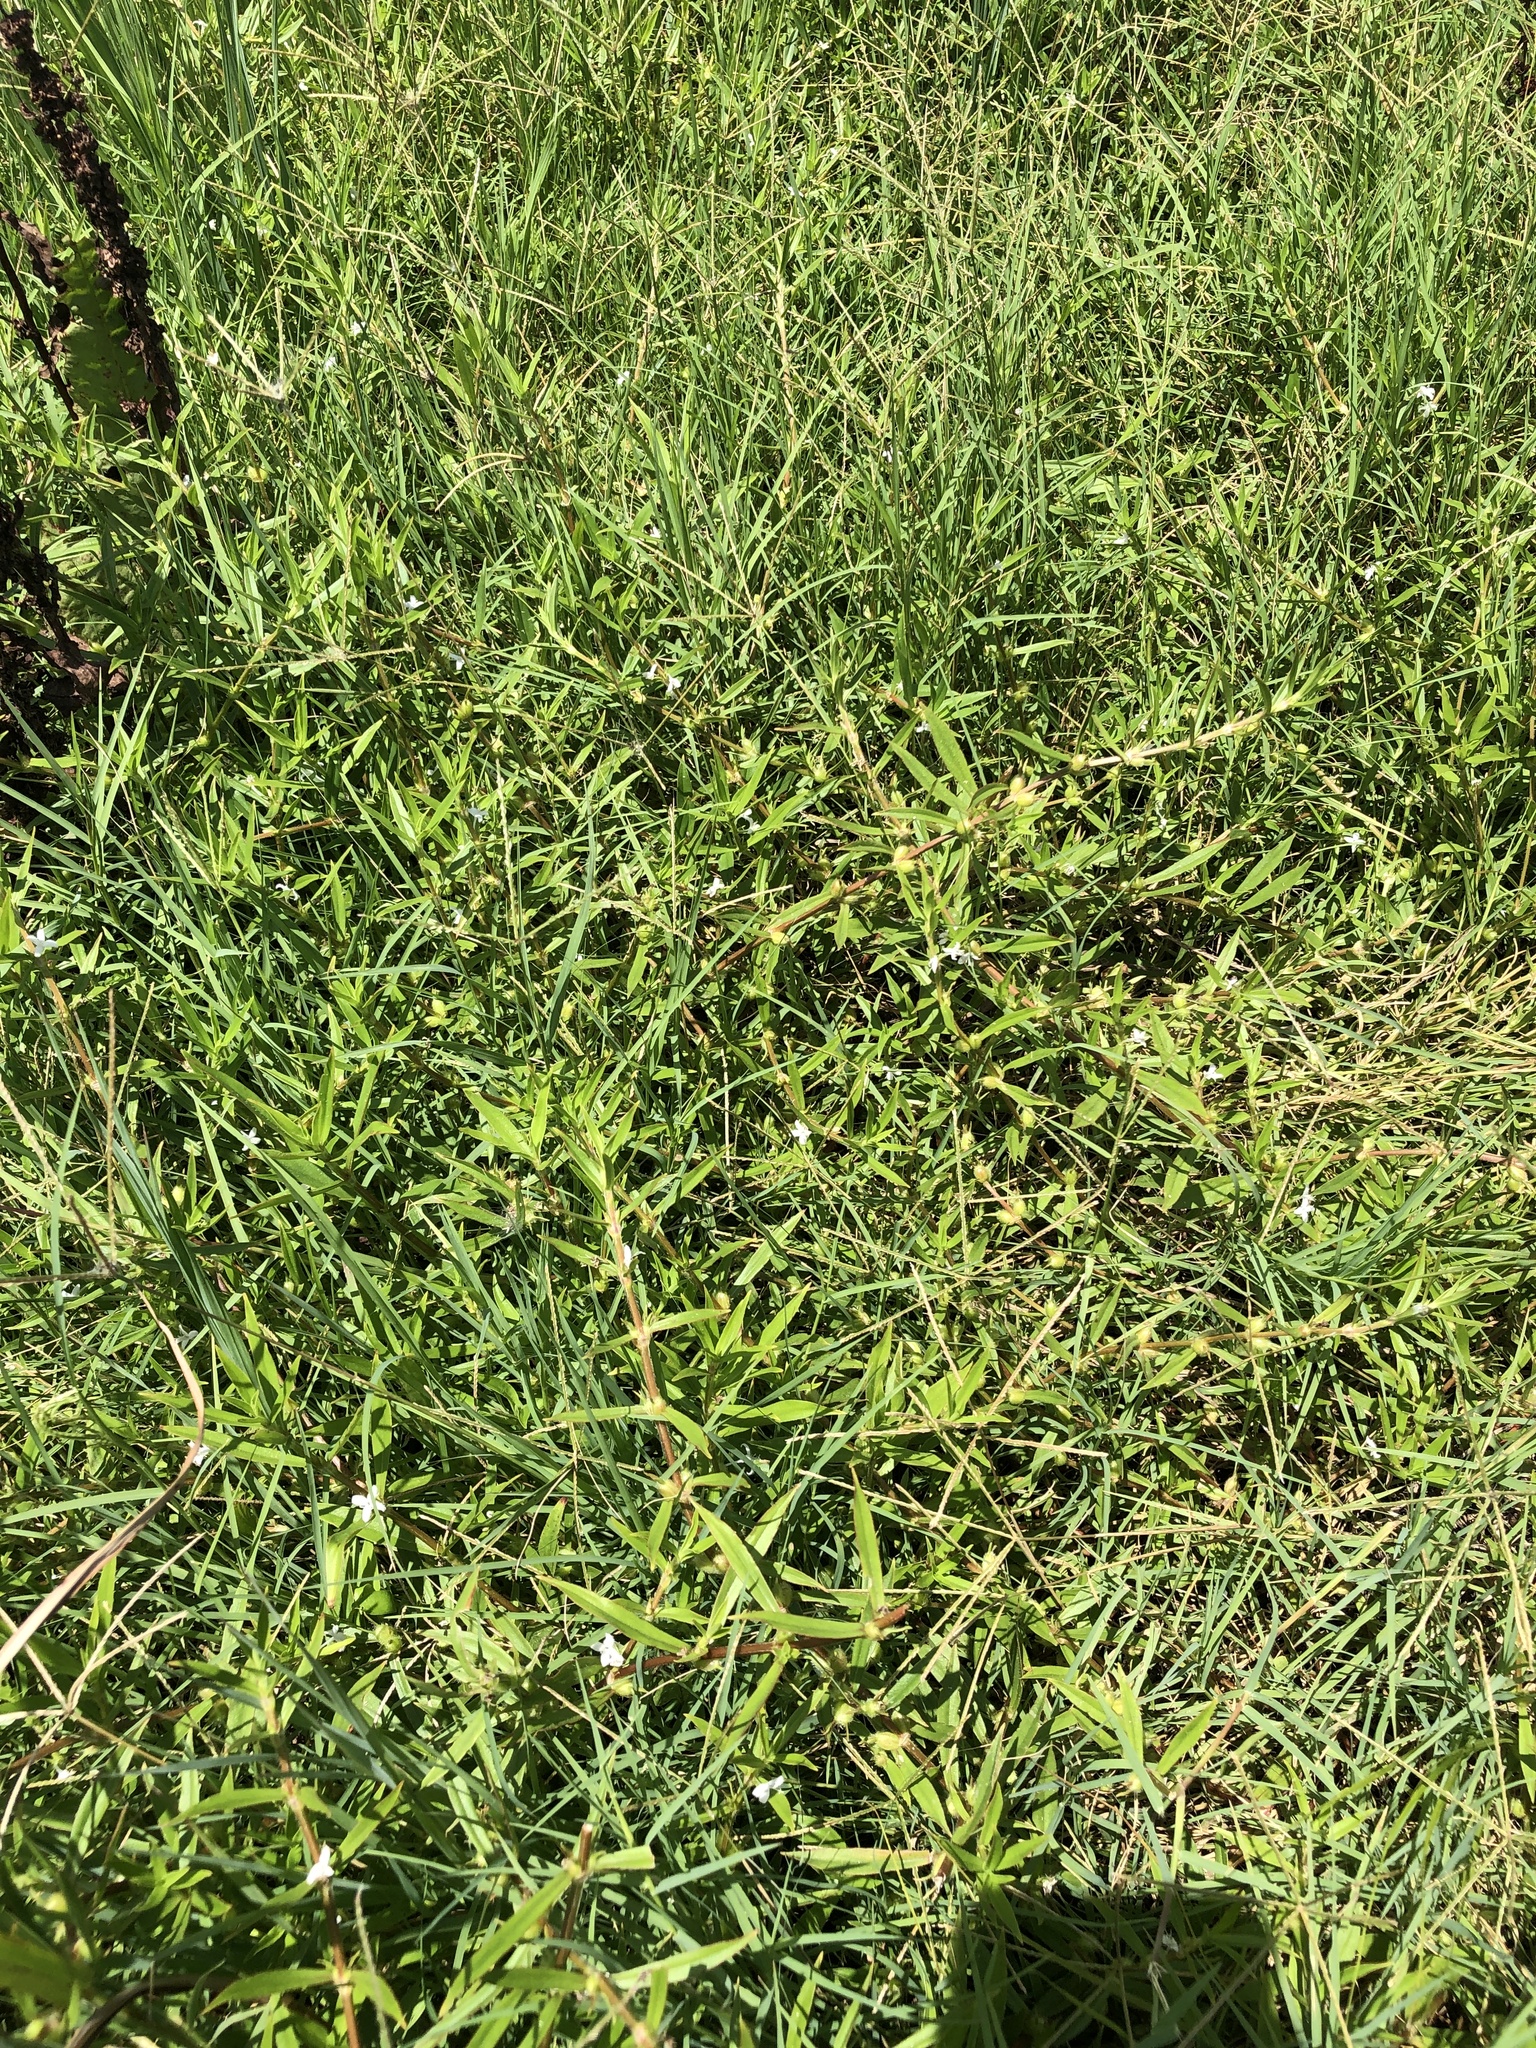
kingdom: Plantae
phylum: Tracheophyta
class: Magnoliopsida
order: Gentianales
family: Rubiaceae
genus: Diodia
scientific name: Diodia virginiana
